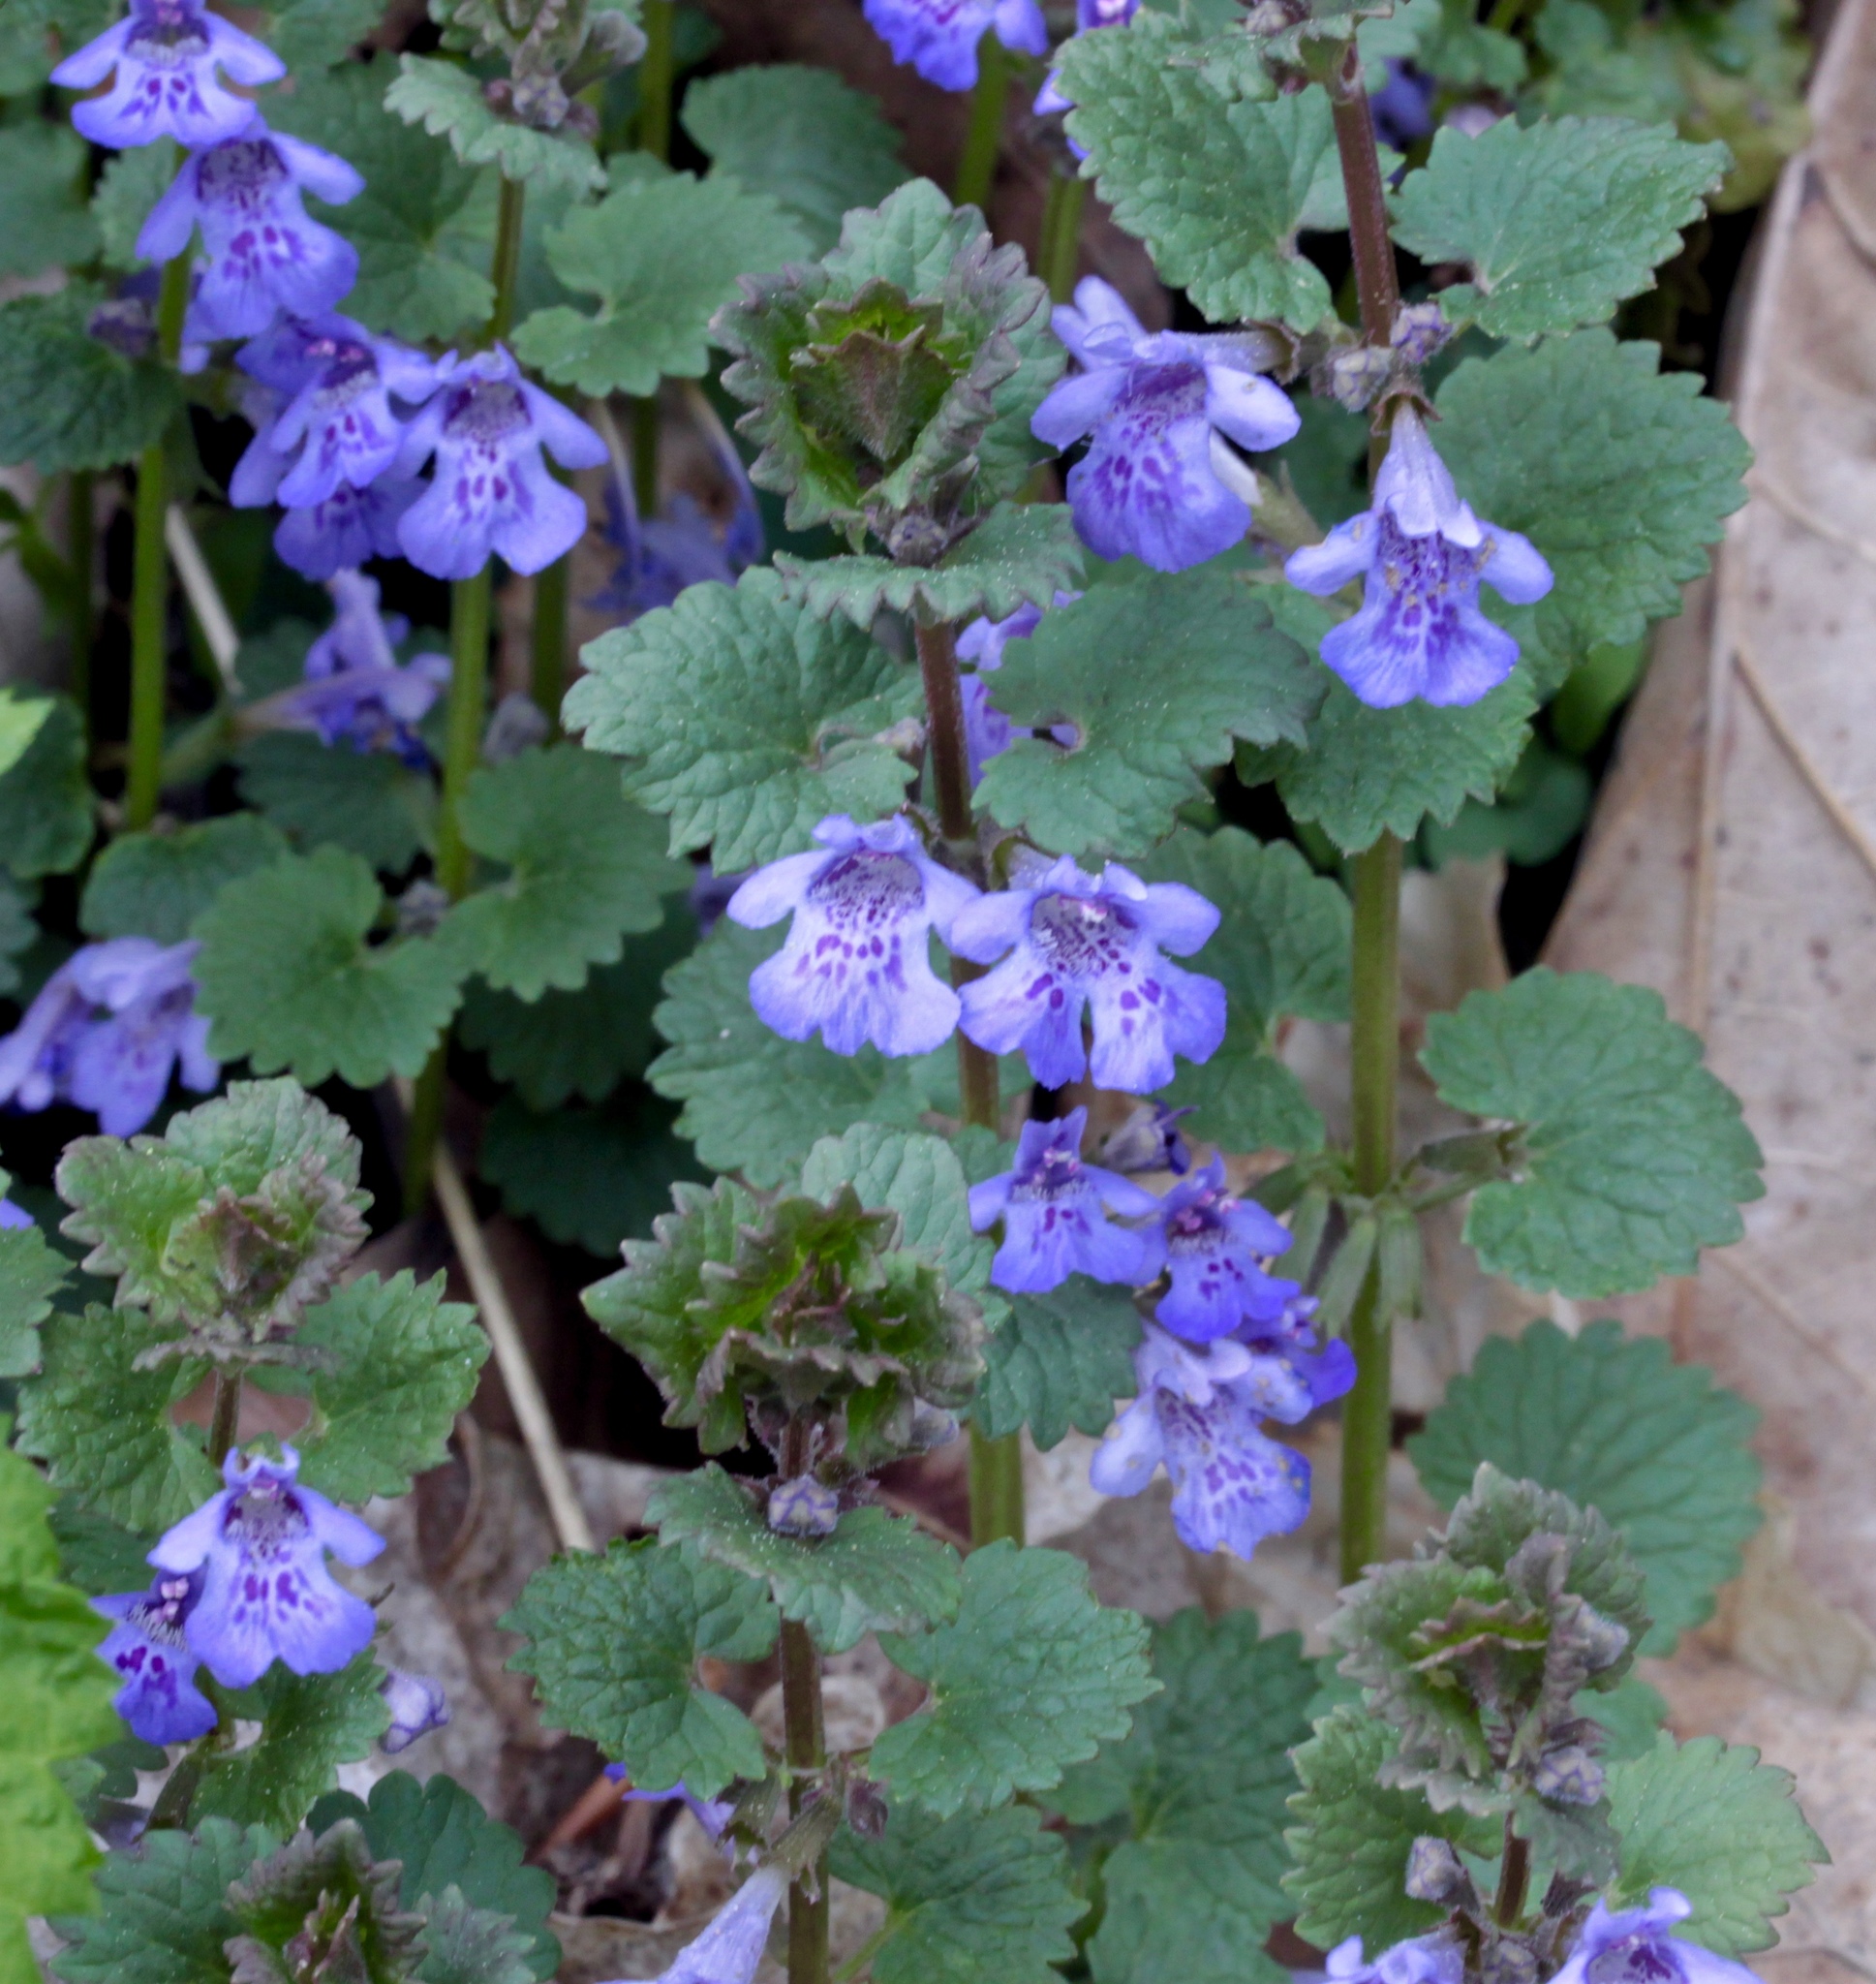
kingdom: Plantae
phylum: Tracheophyta
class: Magnoliopsida
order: Lamiales
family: Lamiaceae
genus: Glechoma
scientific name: Glechoma hederacea
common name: Ground ivy
